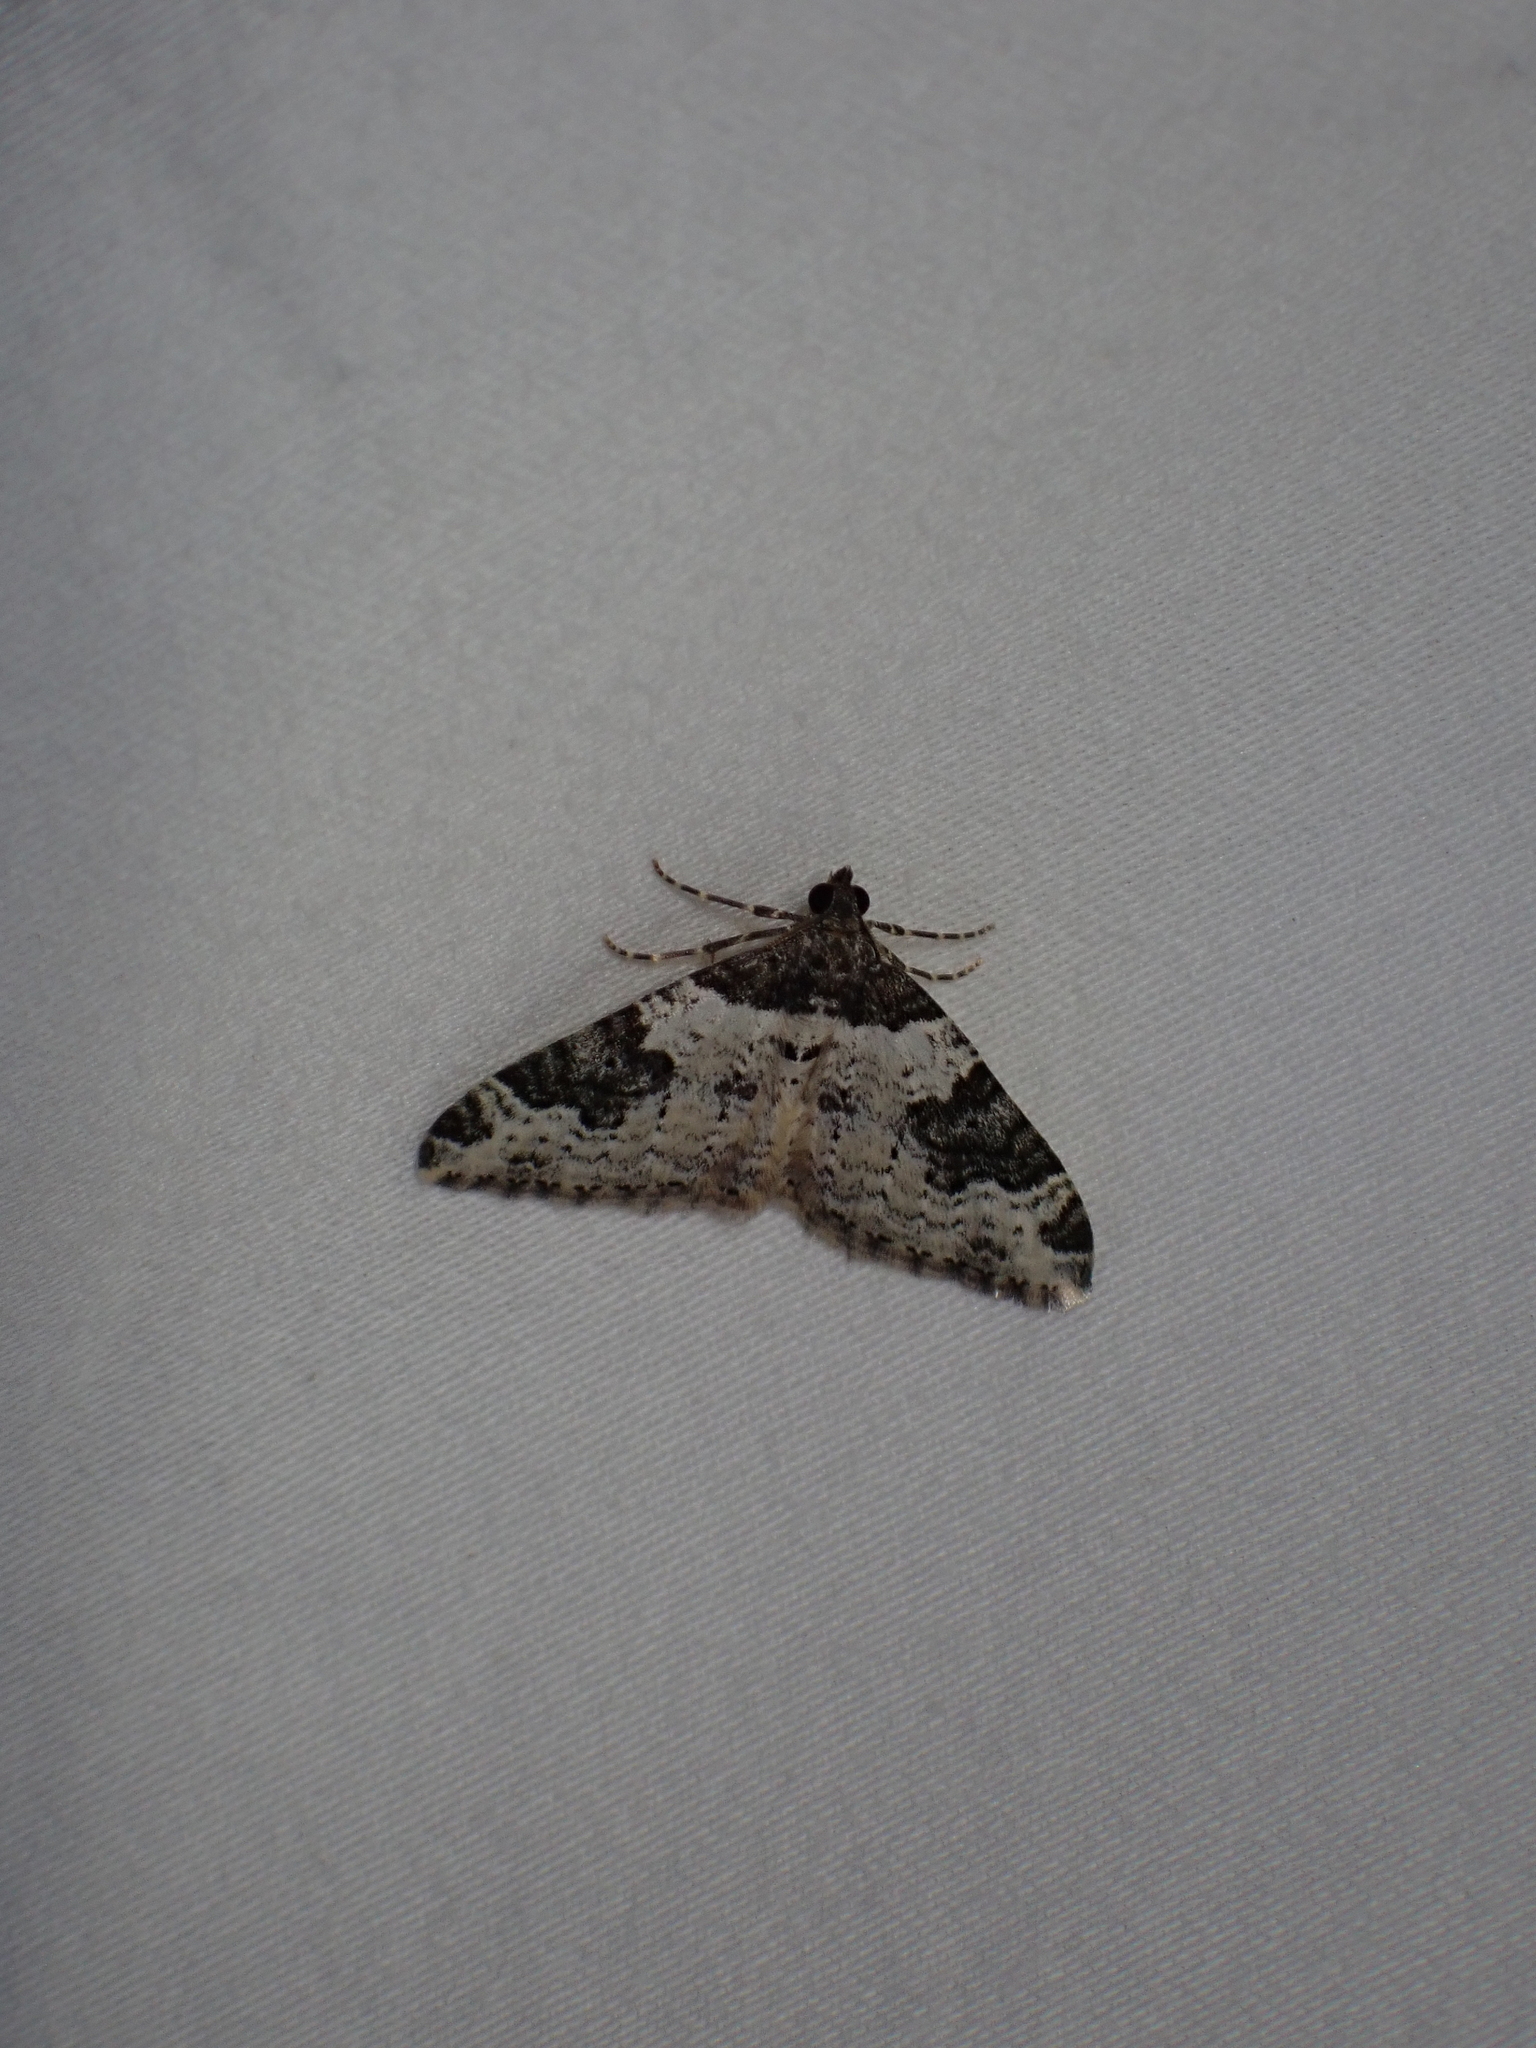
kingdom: Animalia
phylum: Arthropoda
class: Insecta
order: Lepidoptera
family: Geometridae
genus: Xanthorhoe
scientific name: Xanthorhoe fluctuata
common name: Garden carpet
